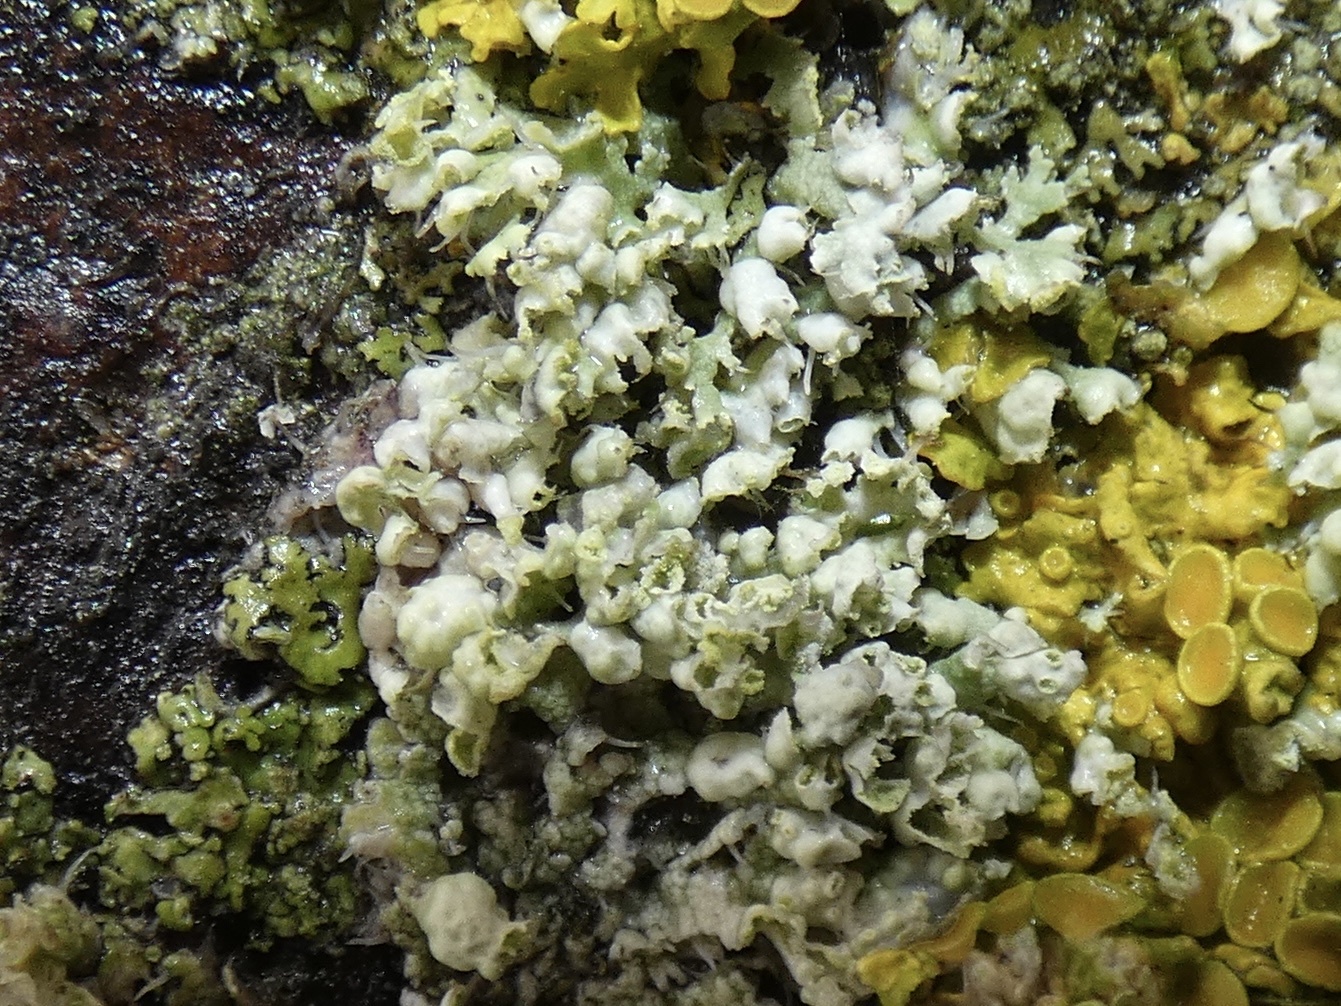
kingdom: Fungi
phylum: Ascomycota
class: Lecanoromycetes
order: Caliciales
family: Physciaceae
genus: Physcia
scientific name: Physcia adscendens
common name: Hooded rosette lichen
